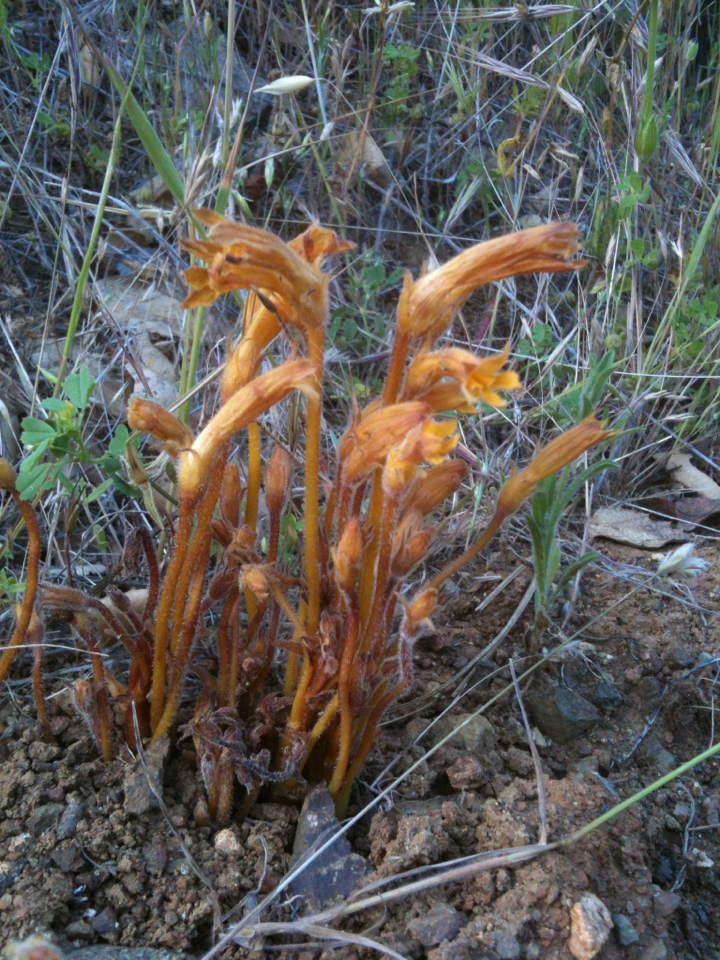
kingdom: Plantae
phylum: Tracheophyta
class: Magnoliopsida
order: Lamiales
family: Orobanchaceae
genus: Aphyllon
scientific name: Aphyllon franciscanum
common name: San francisco broomrape
